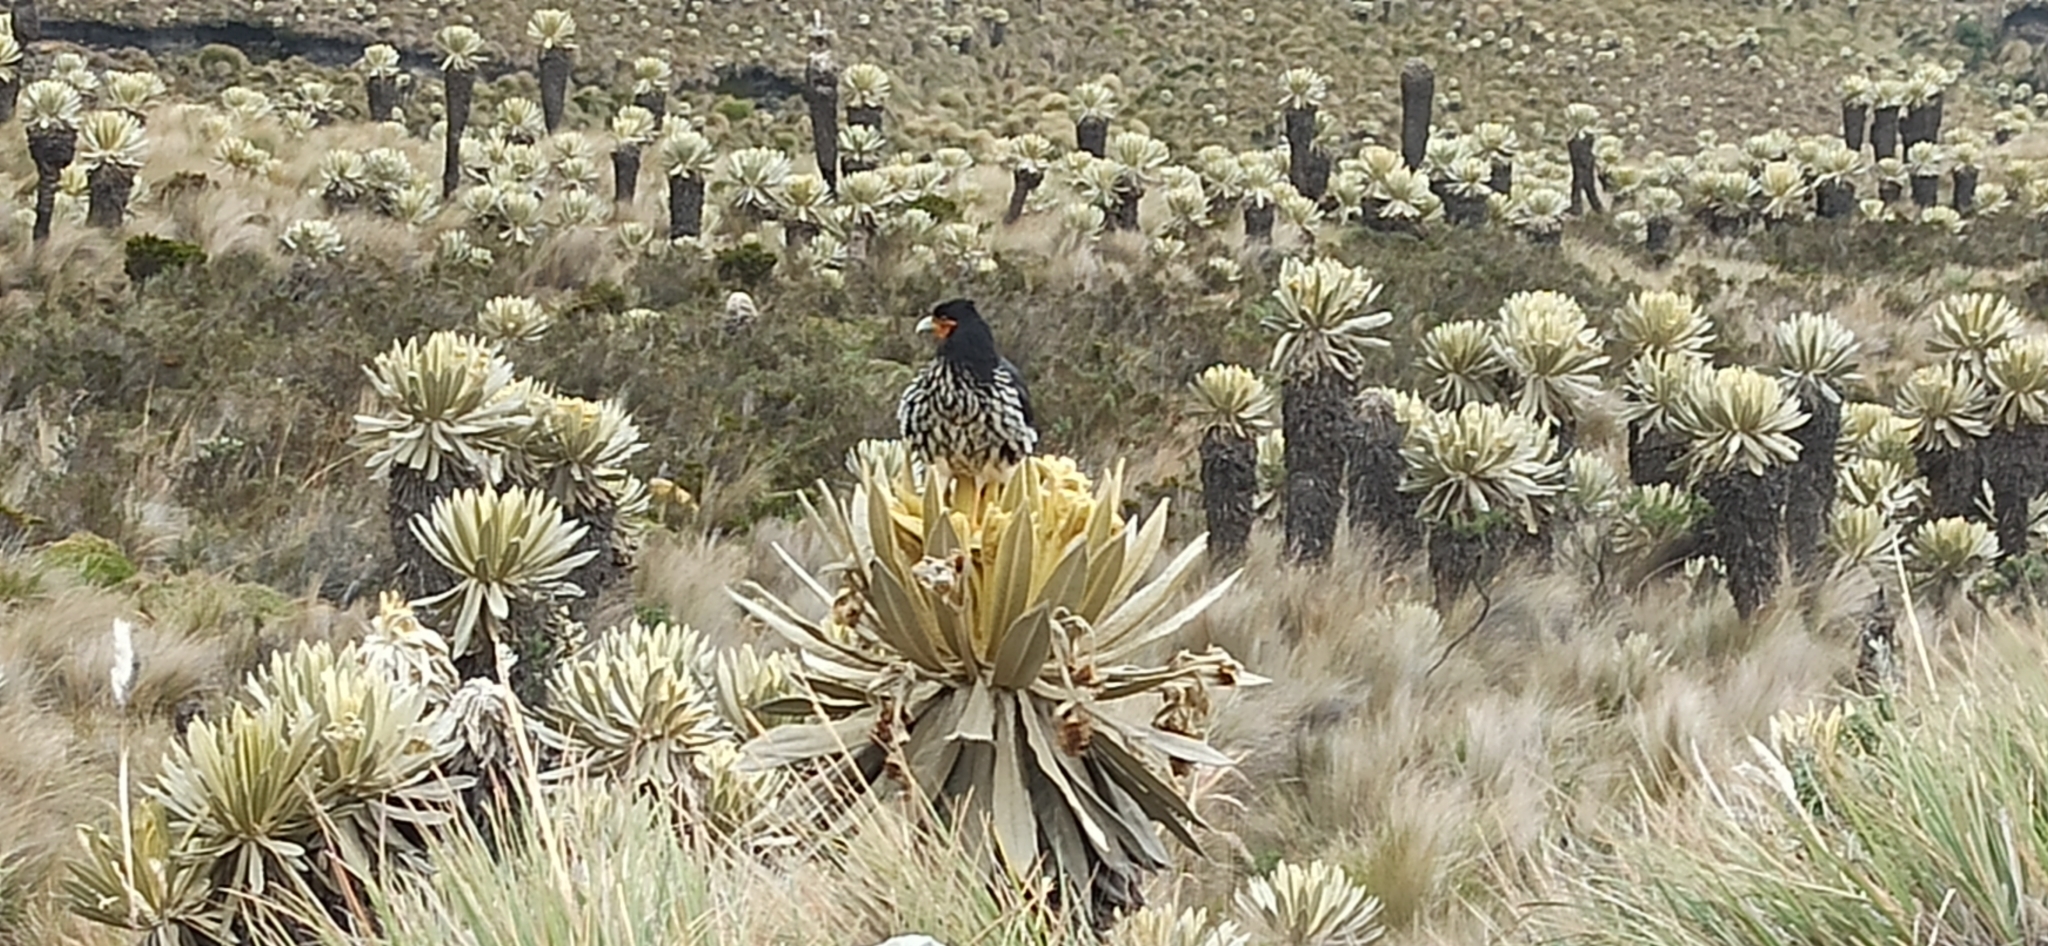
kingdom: Animalia
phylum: Chordata
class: Aves
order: Falconiformes
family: Falconidae
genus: Daptrius
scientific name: Daptrius
